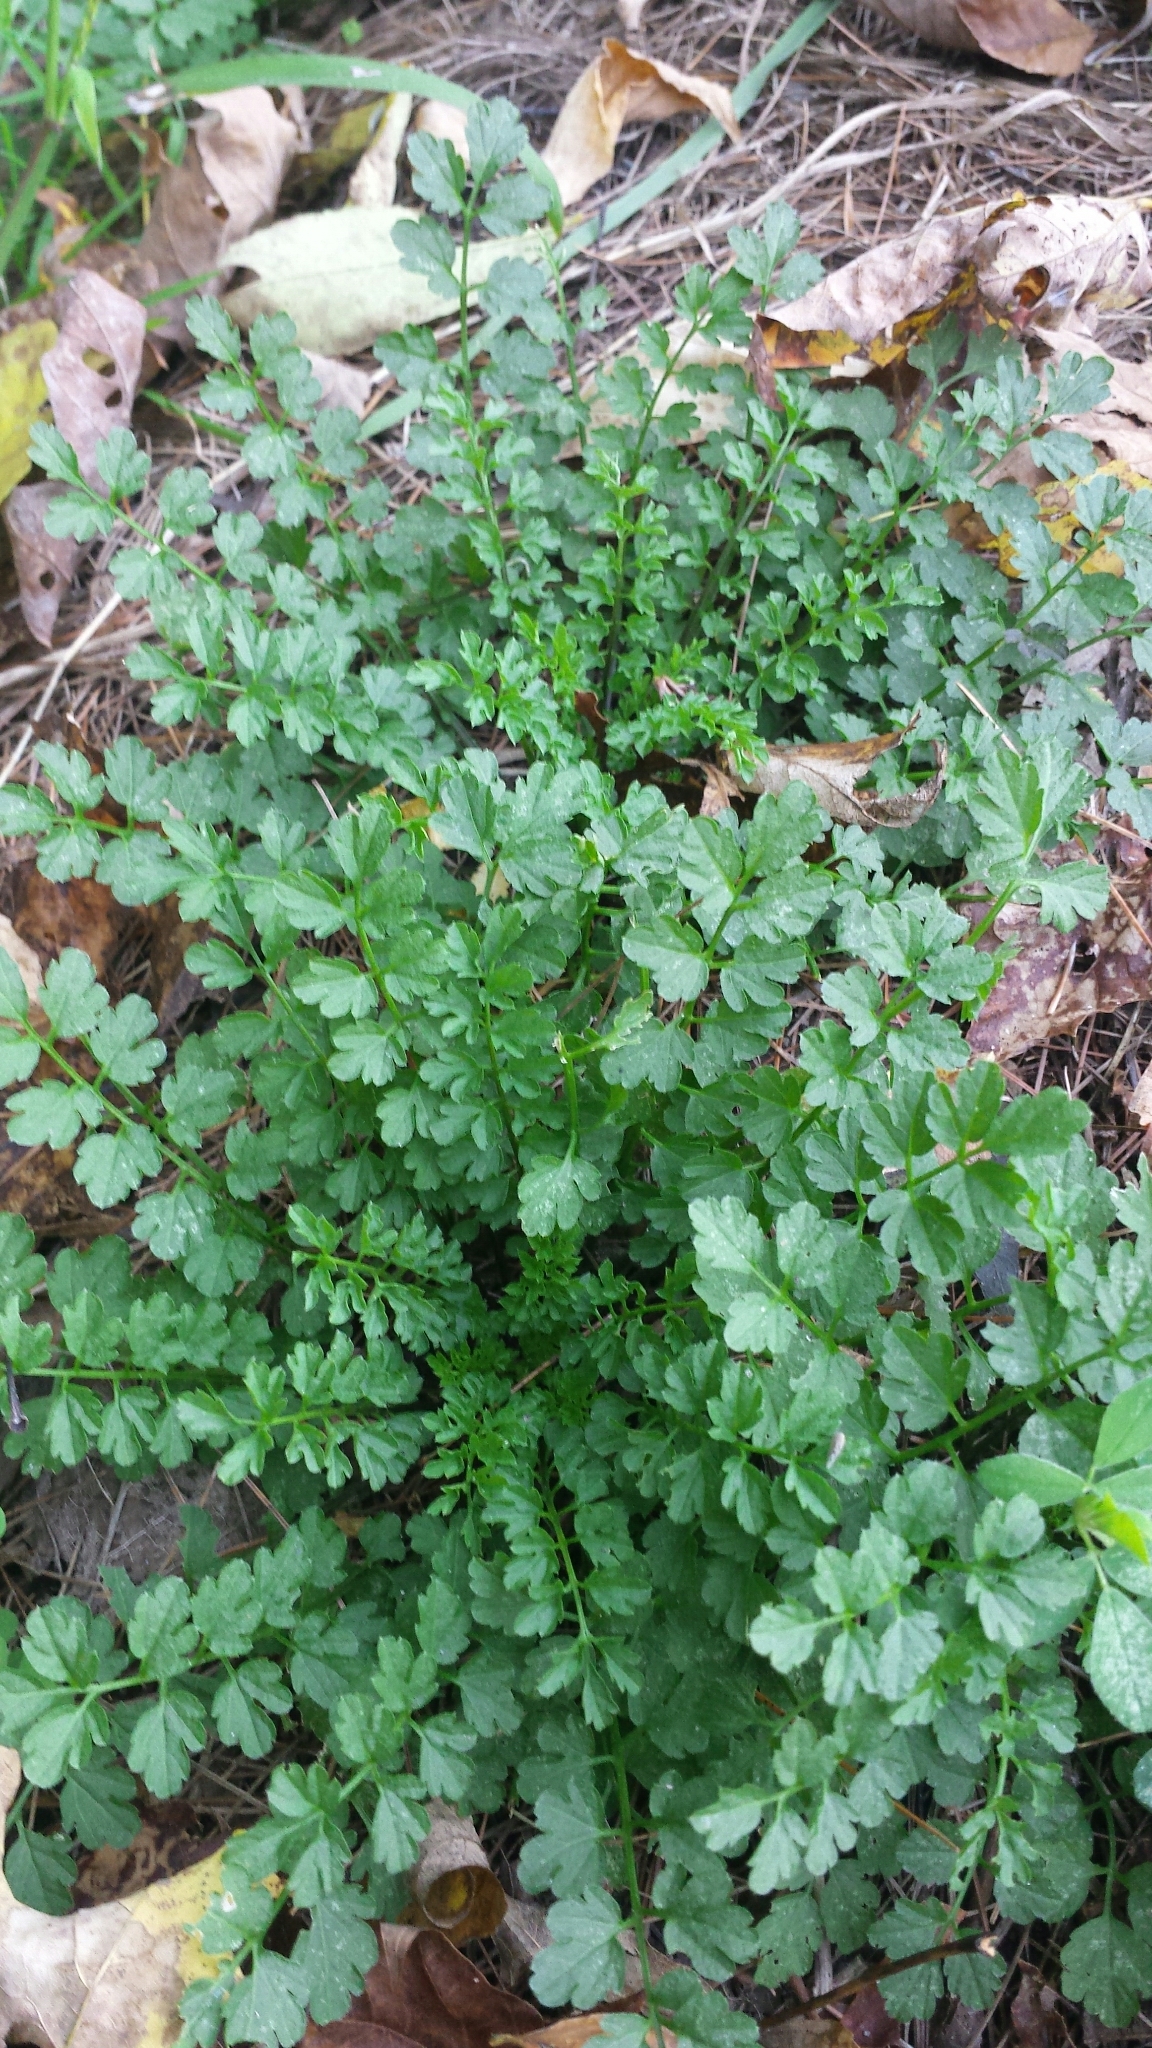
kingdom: Plantae
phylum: Tracheophyta
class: Magnoliopsida
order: Brassicales
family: Brassicaceae
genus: Cardamine
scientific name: Cardamine impatiens
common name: Narrow-leaved bitter-cress
